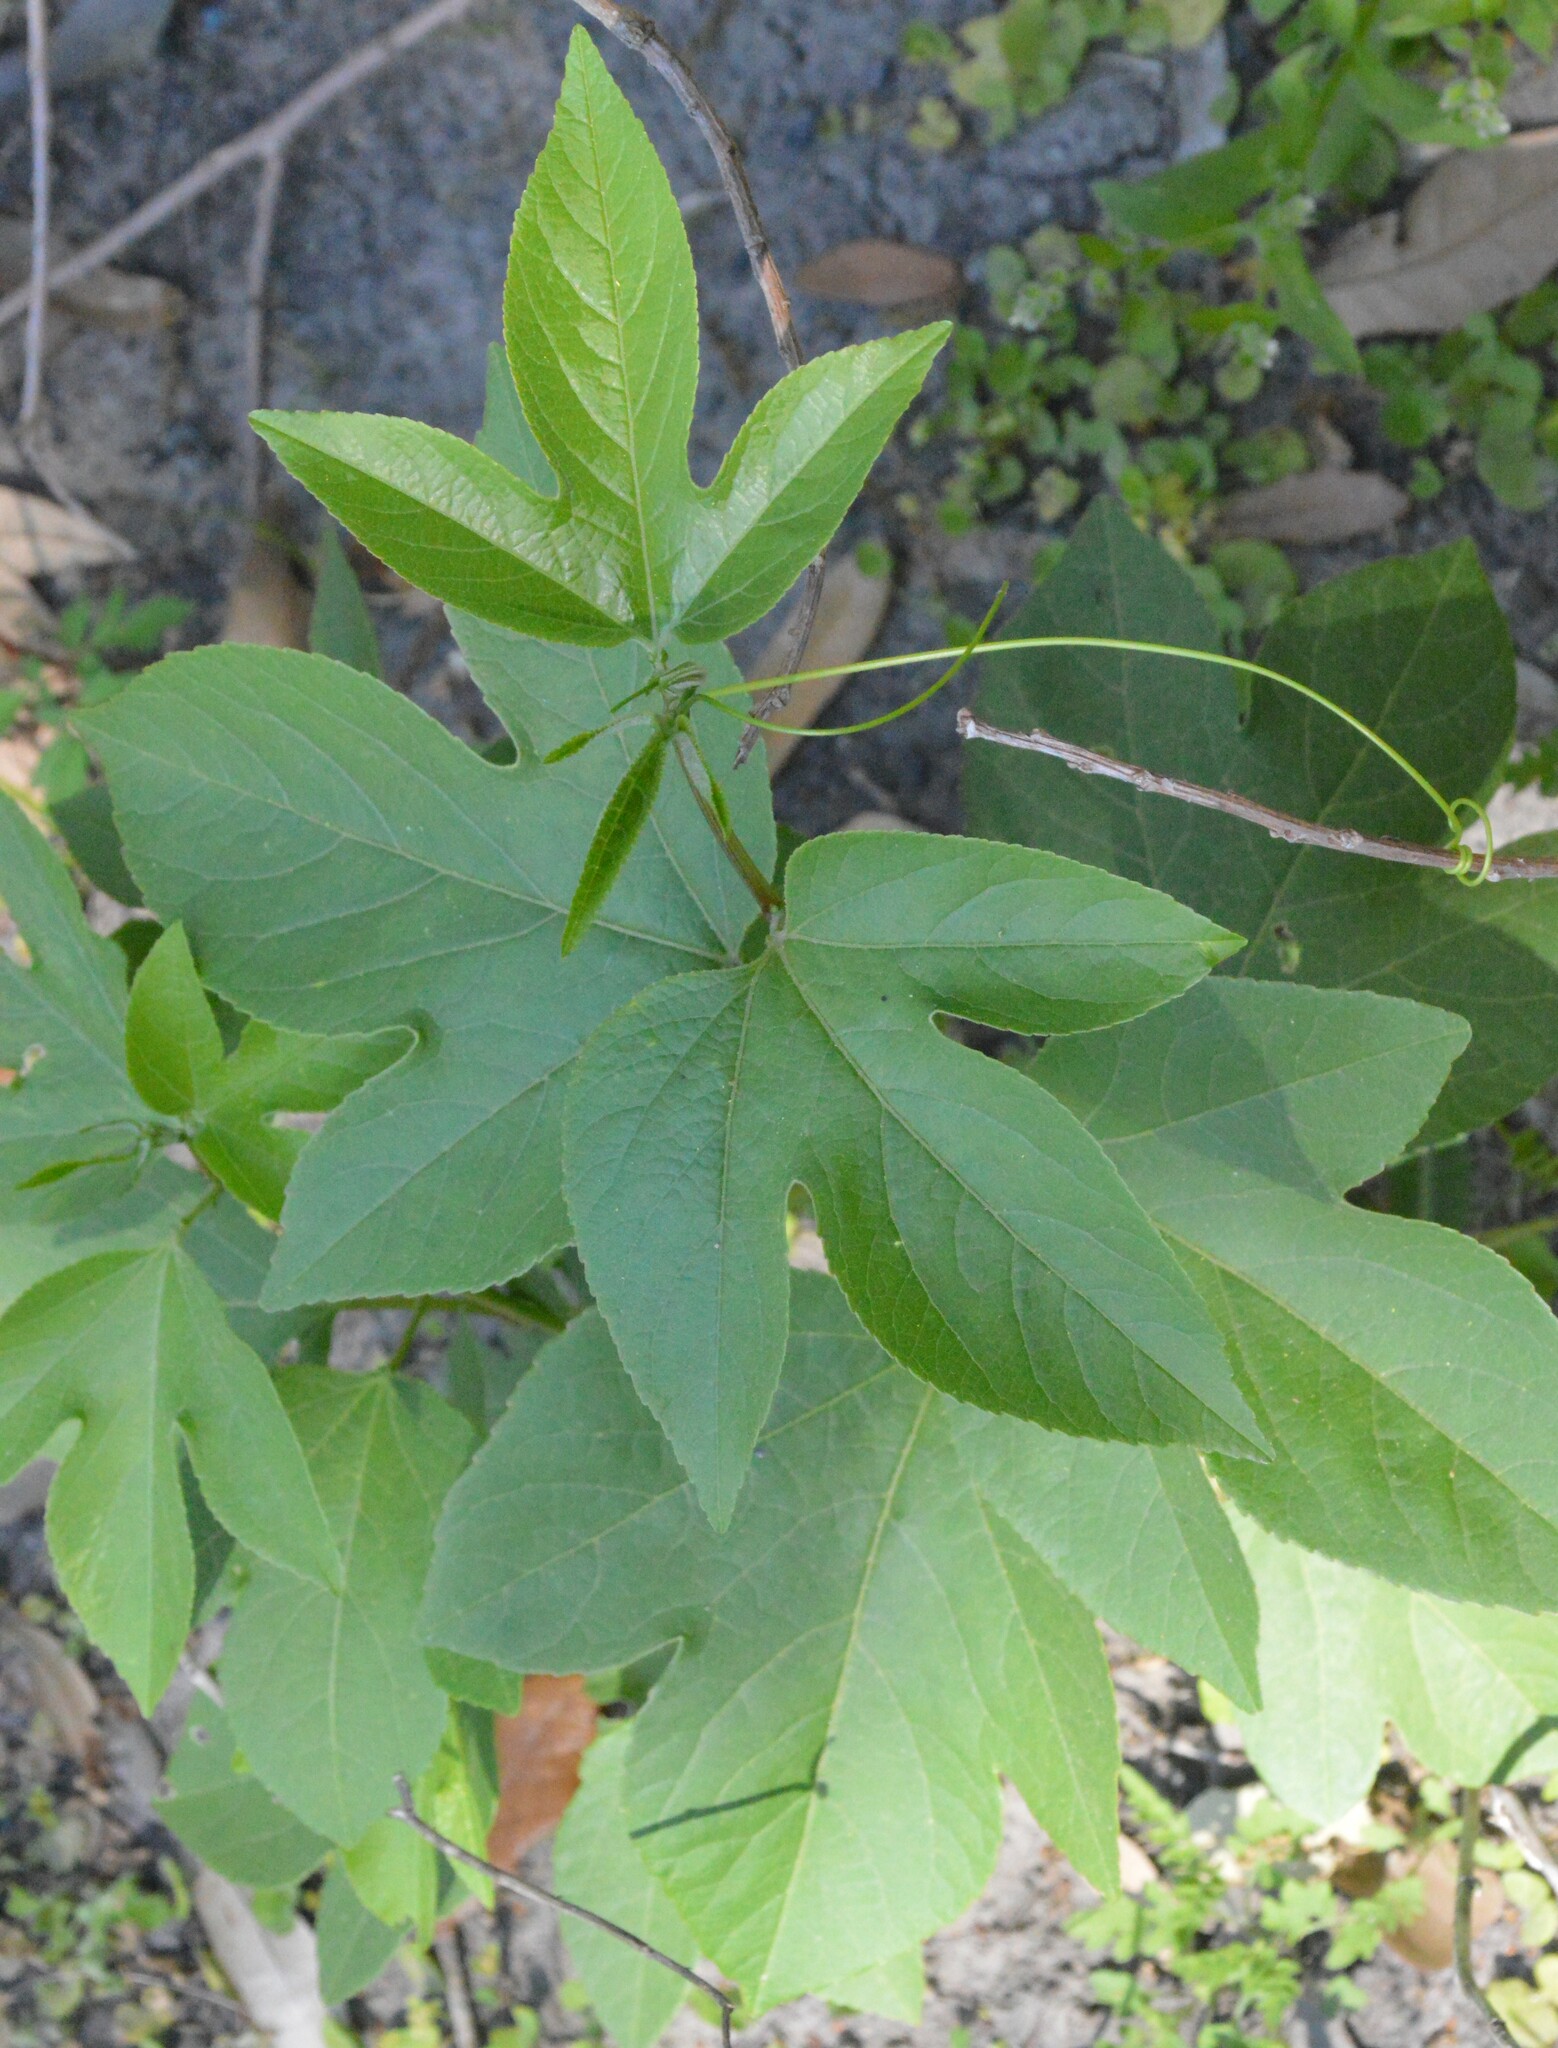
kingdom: Plantae
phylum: Tracheophyta
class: Magnoliopsida
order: Malpighiales
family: Passifloraceae
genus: Passiflora
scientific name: Passiflora incarnata
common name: Apricot-vine
